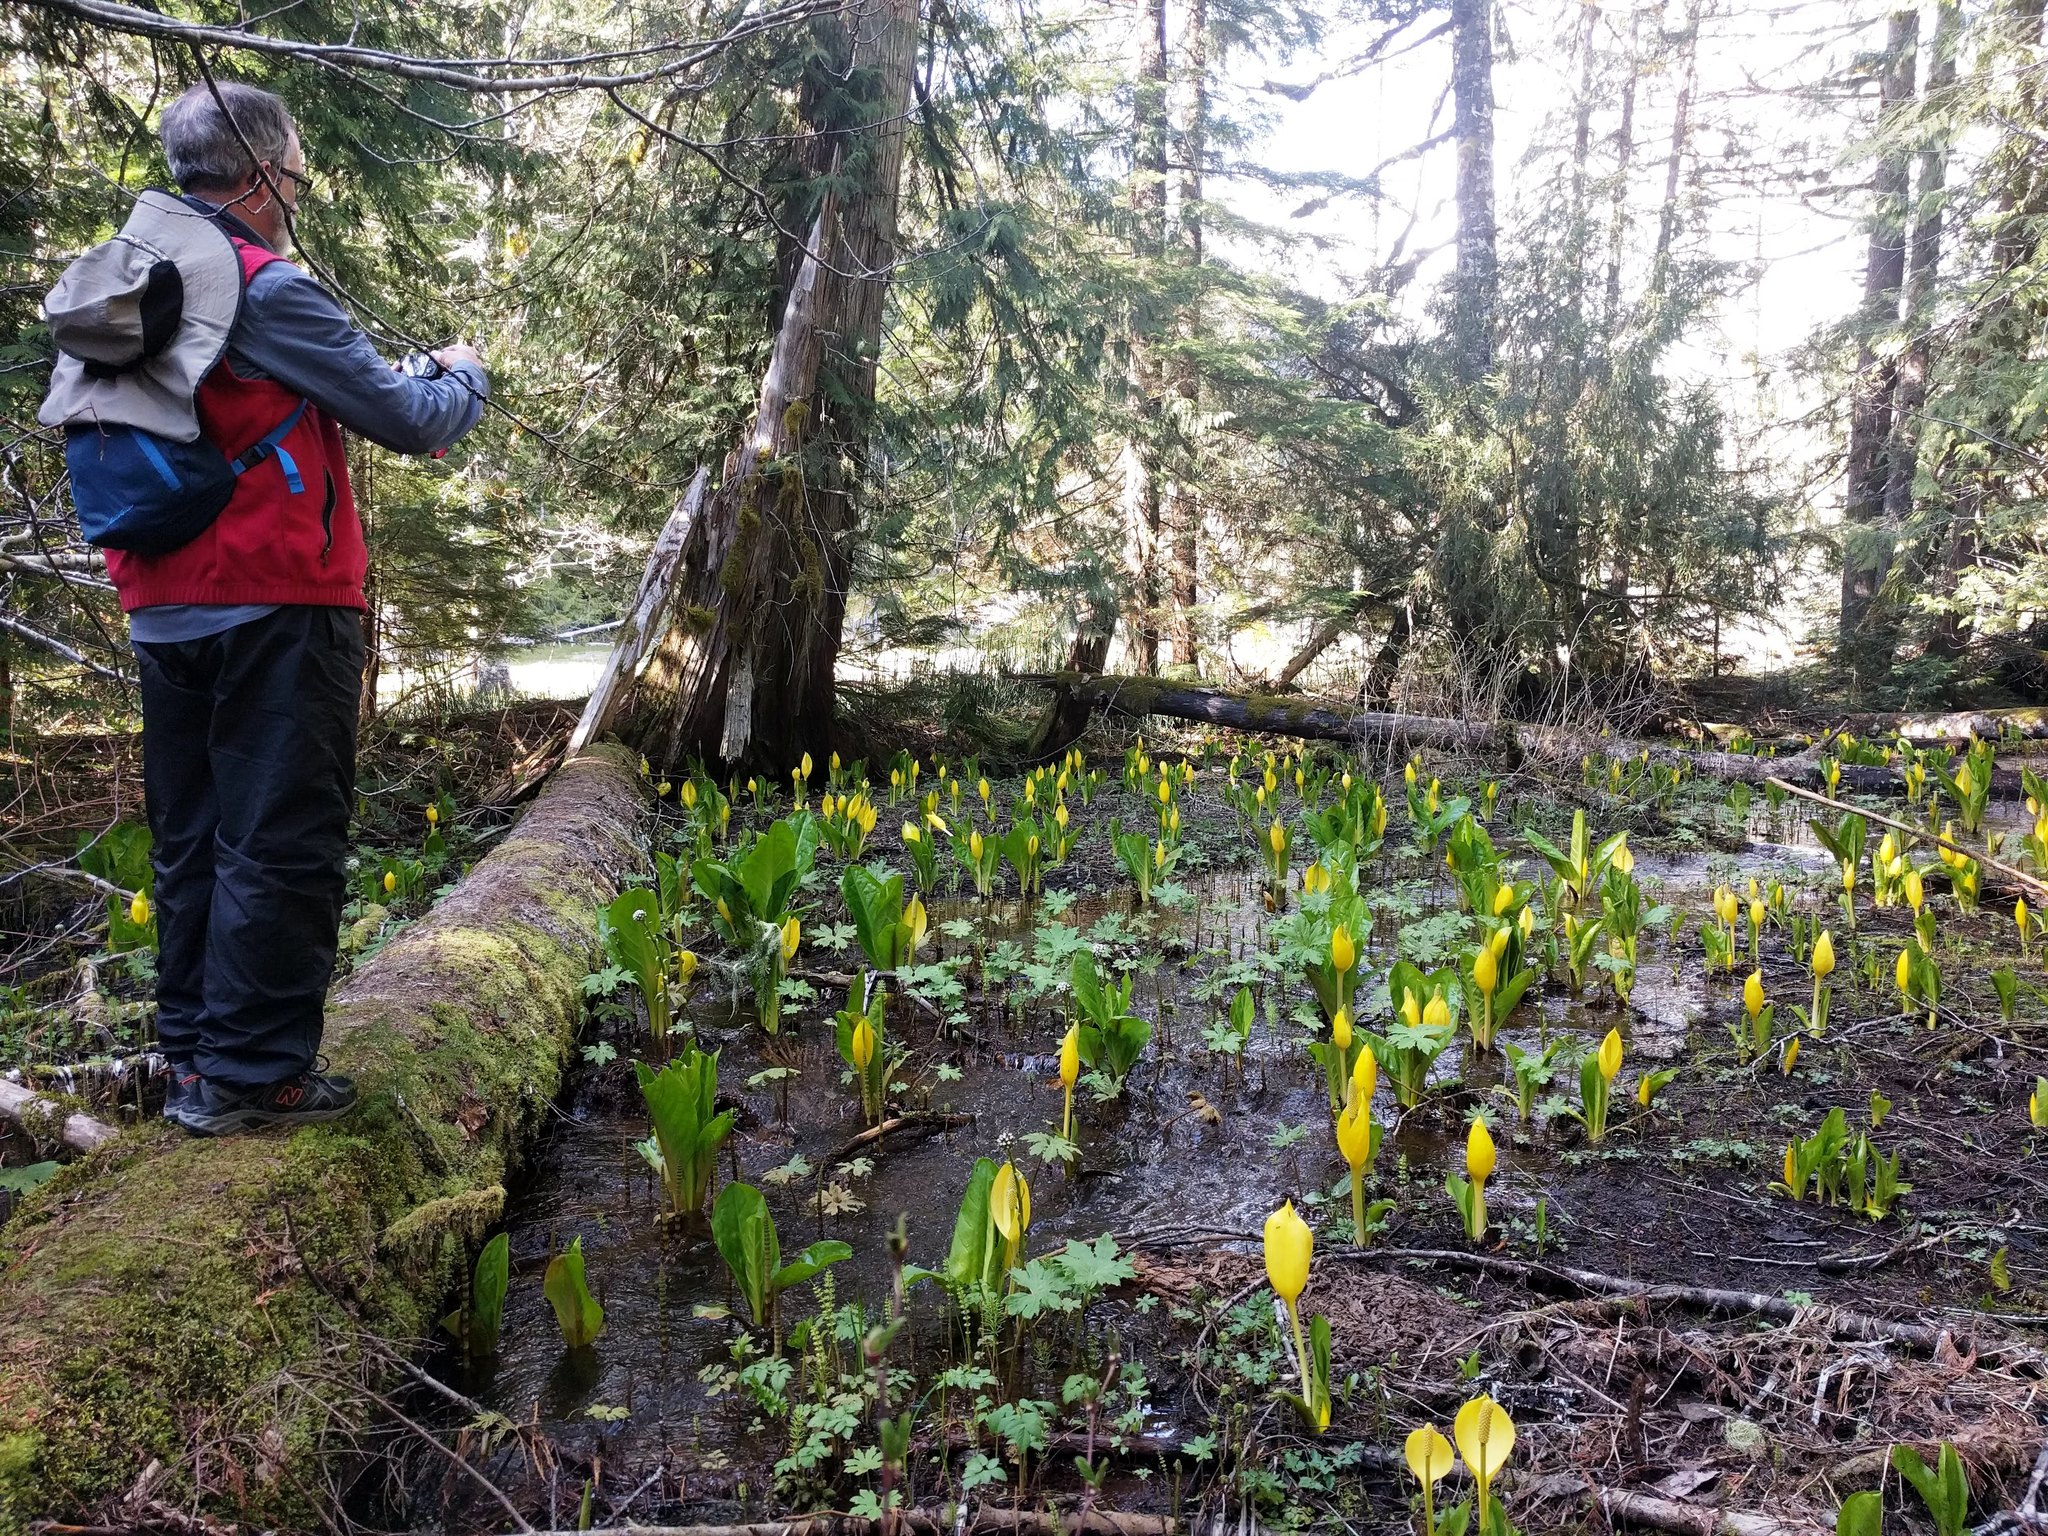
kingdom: Plantae
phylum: Tracheophyta
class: Liliopsida
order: Alismatales
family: Araceae
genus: Lysichiton
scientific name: Lysichiton americanus
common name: American skunk cabbage
